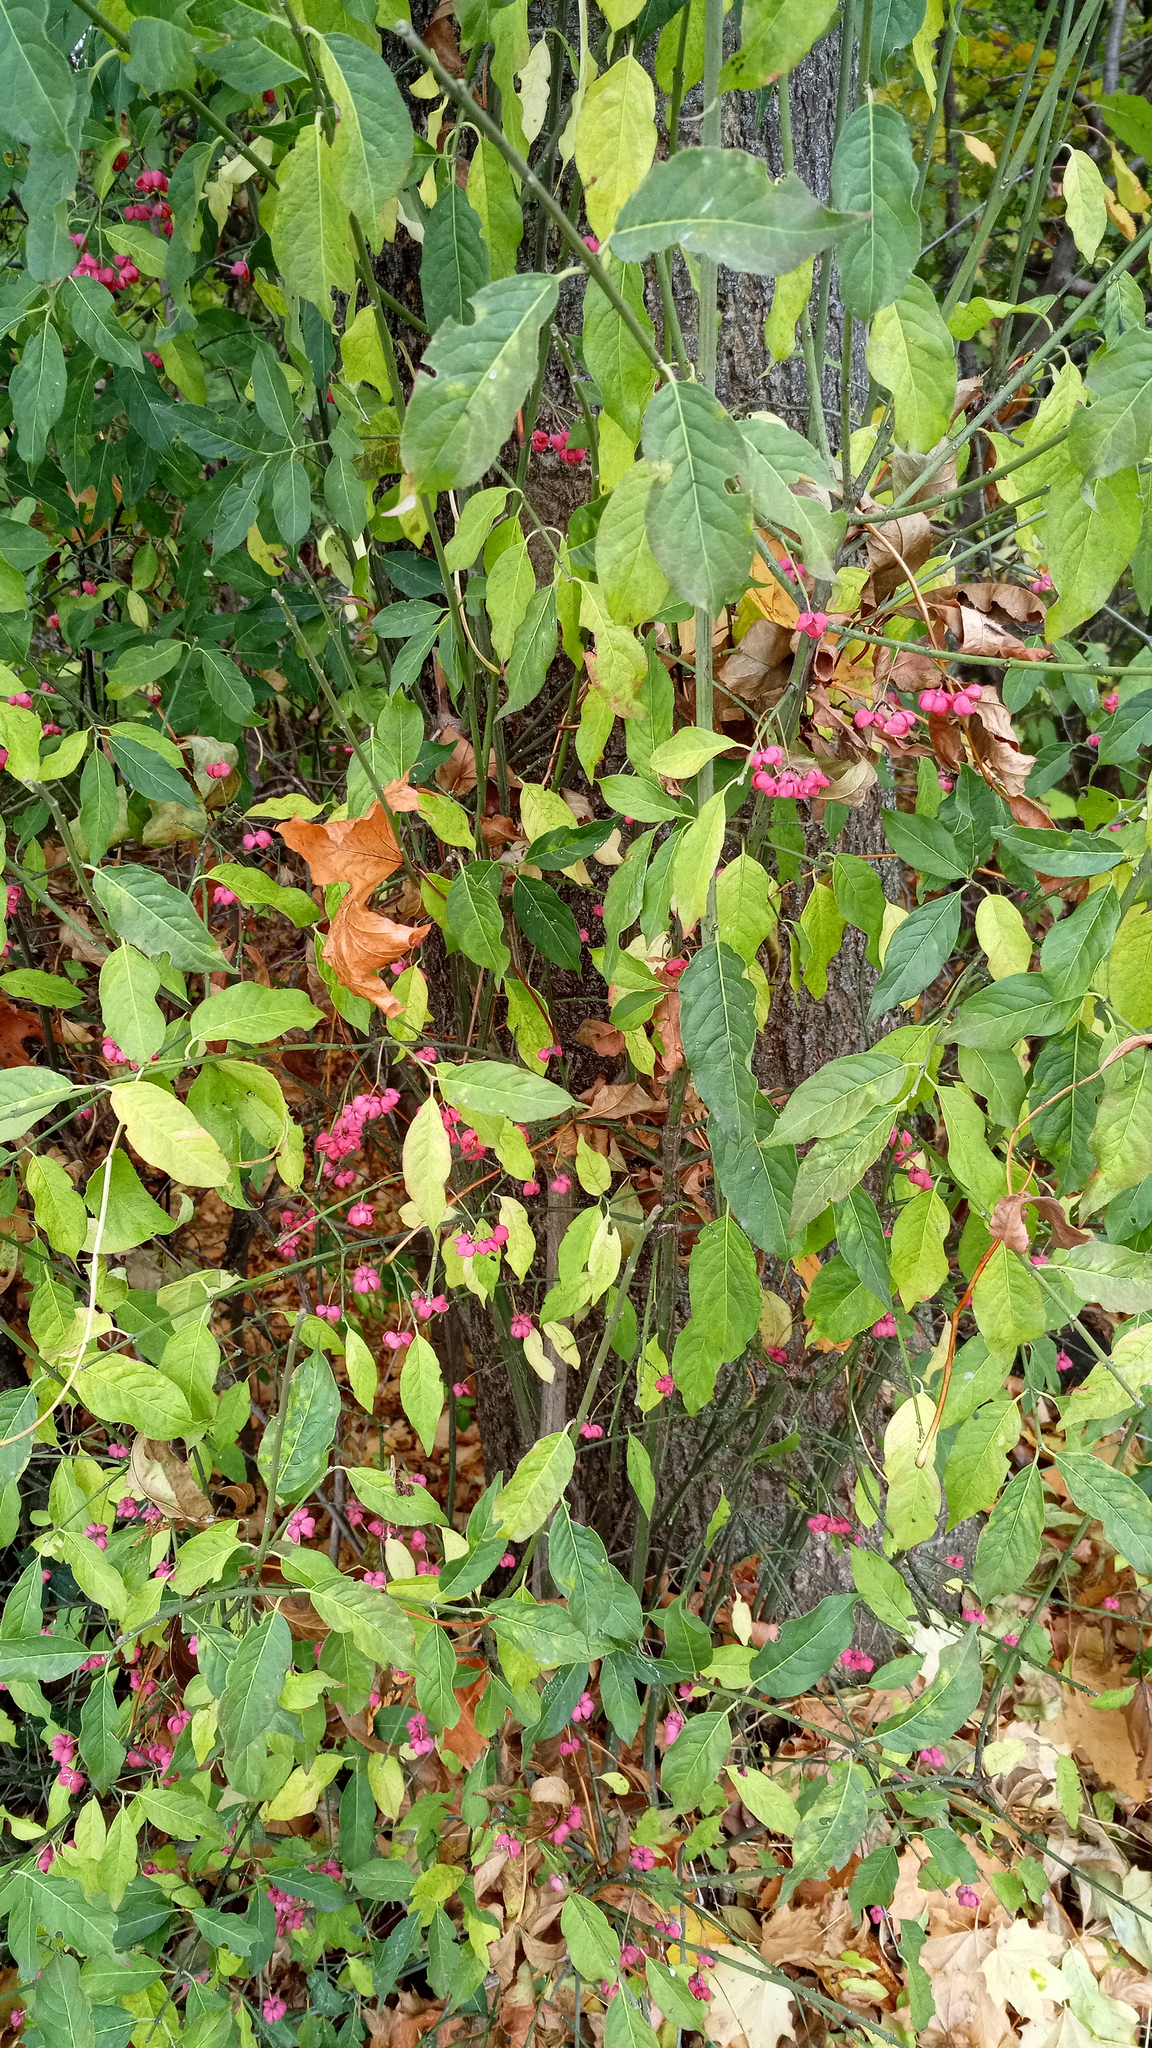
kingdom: Plantae
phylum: Tracheophyta
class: Magnoliopsida
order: Celastrales
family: Celastraceae
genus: Euonymus
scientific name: Euonymus europaeus
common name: Spindle
